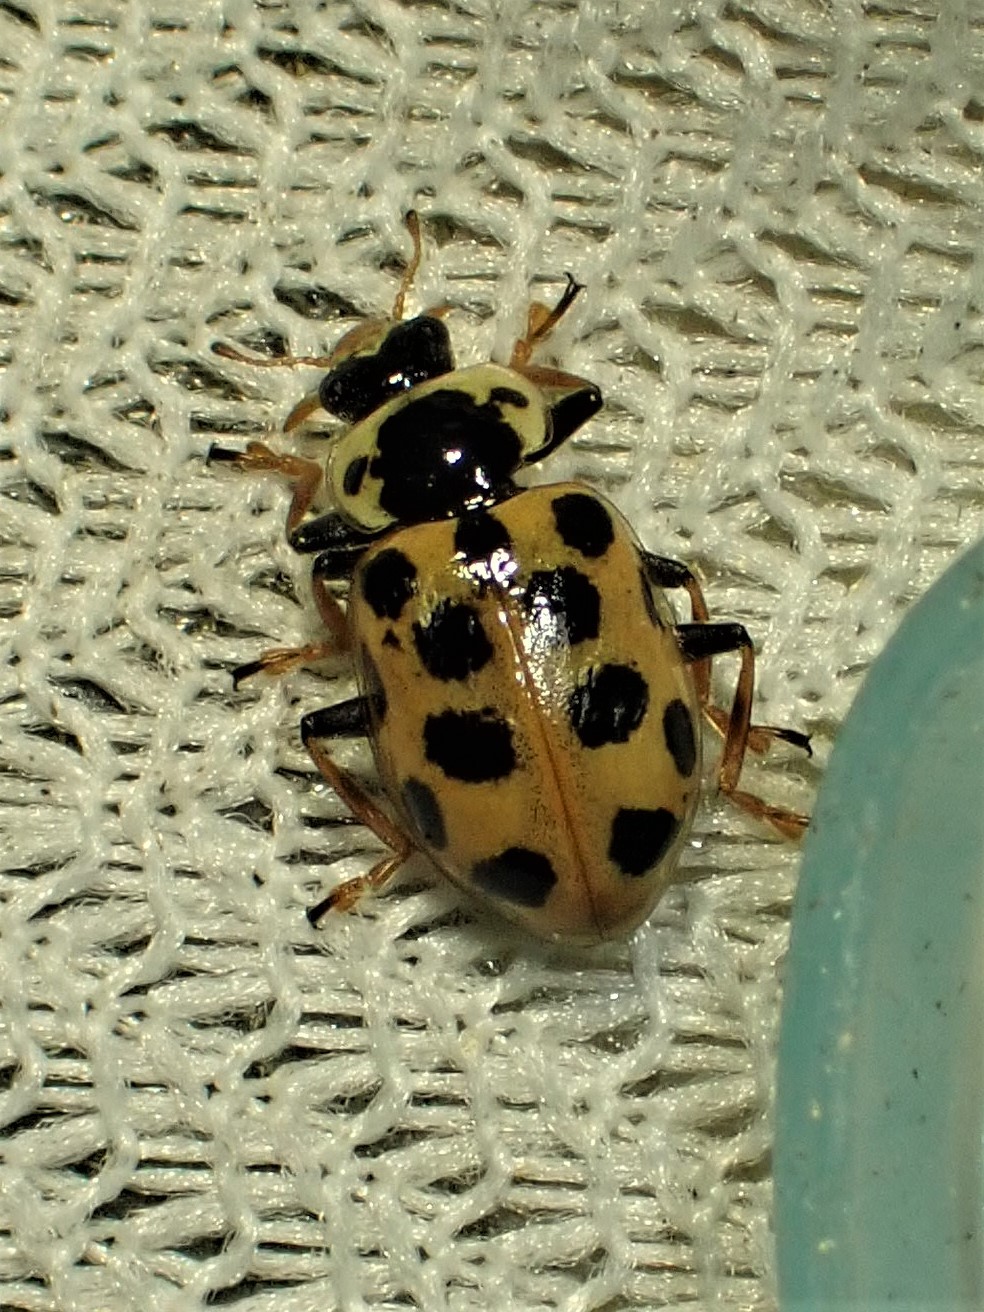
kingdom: Animalia
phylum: Arthropoda
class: Insecta
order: Coleoptera
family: Coccinellidae
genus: Hippodamia
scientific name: Hippodamia tredecimpunctata
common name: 13-spot ladybird
